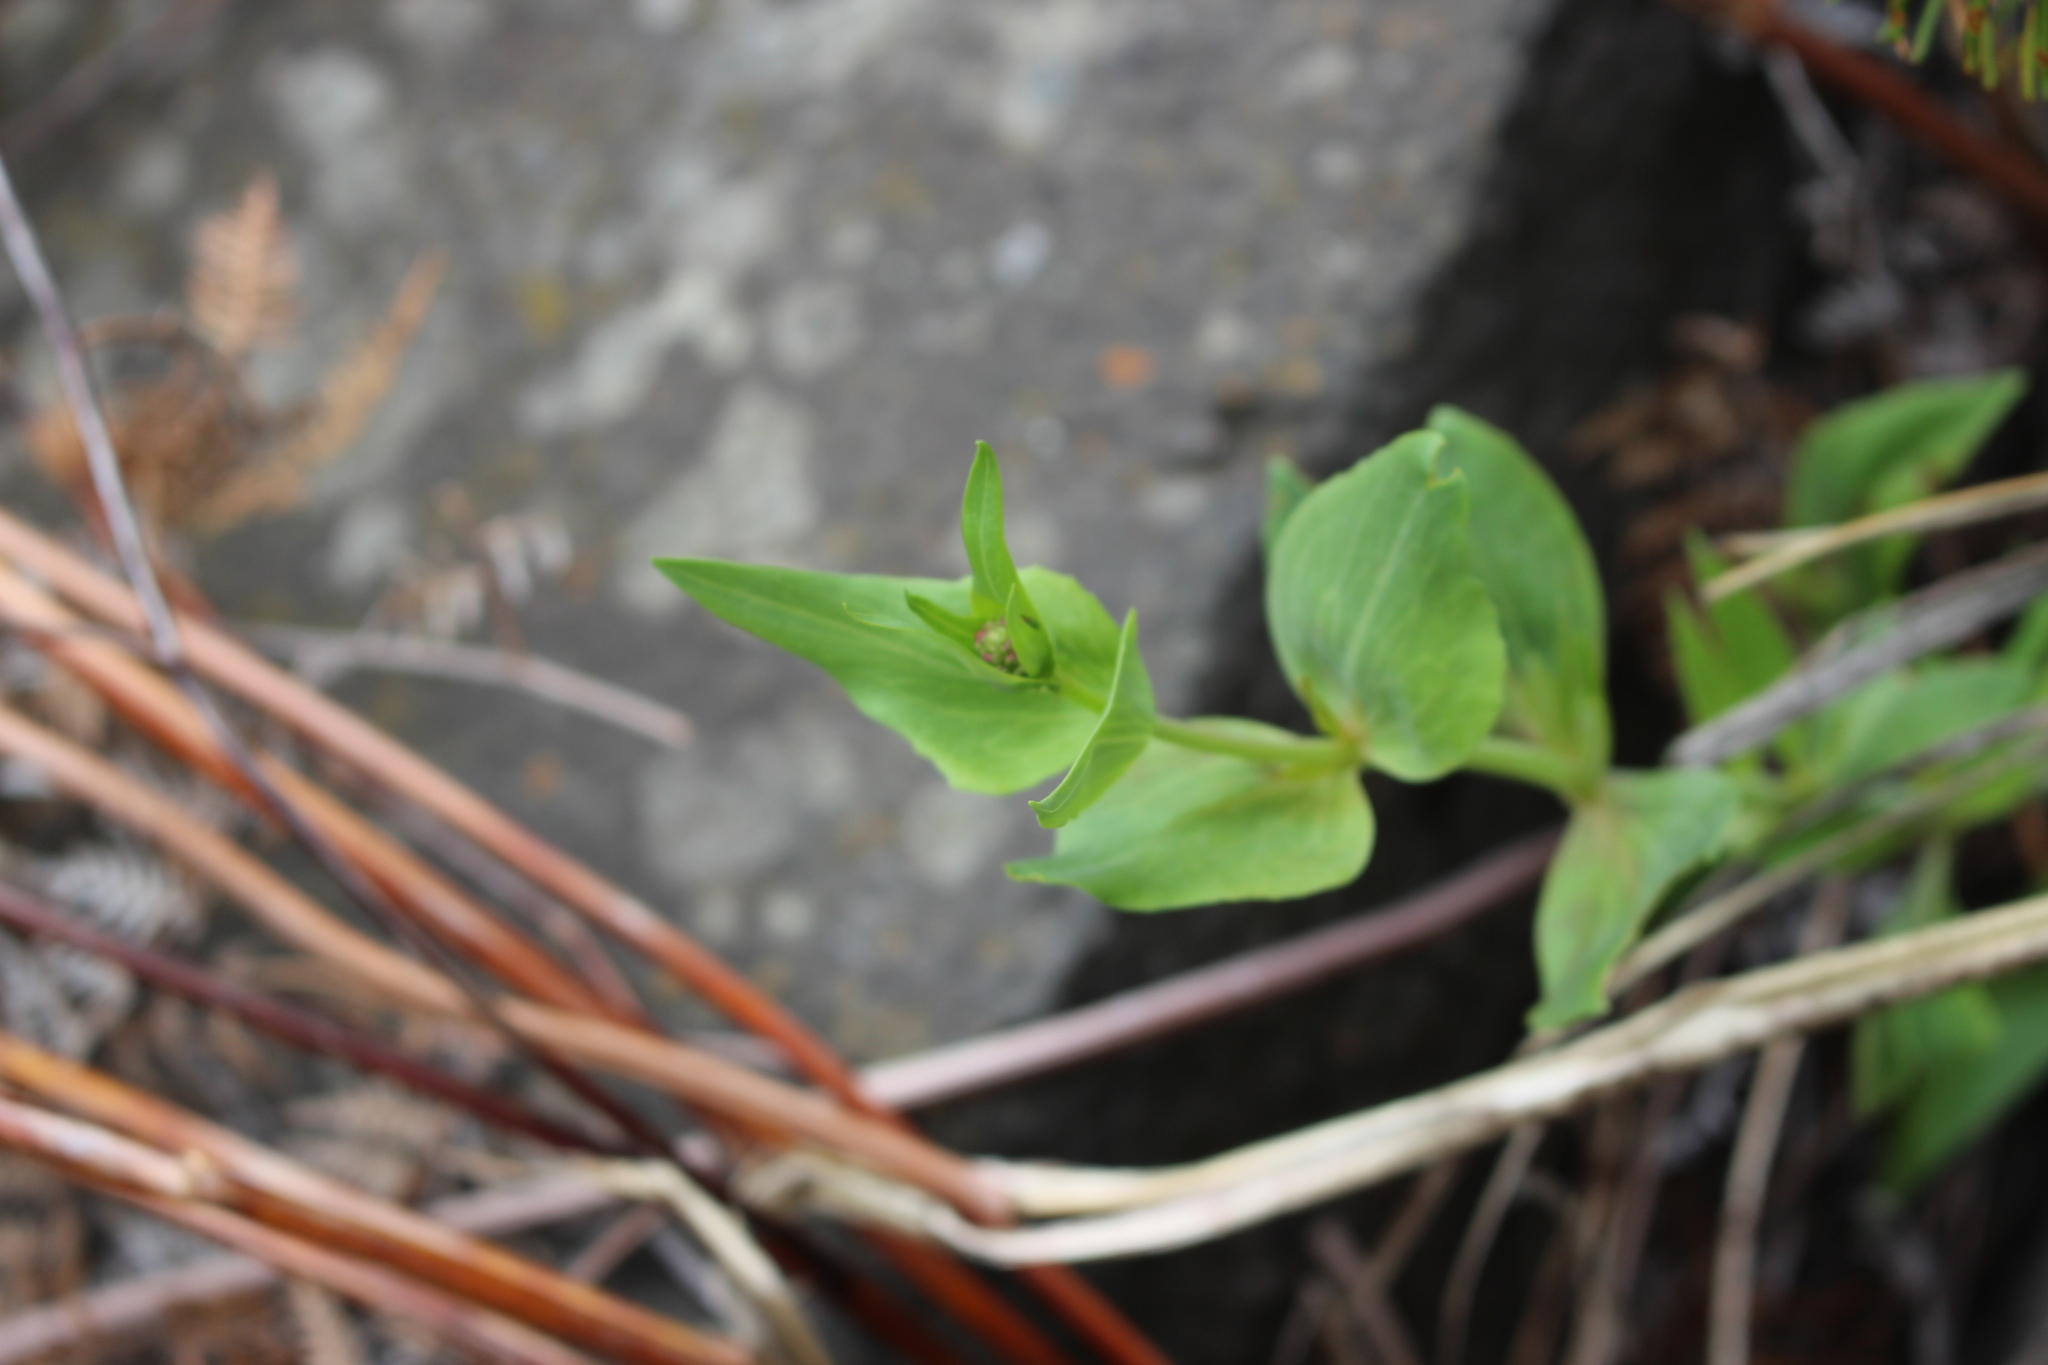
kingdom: Plantae
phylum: Tracheophyta
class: Magnoliopsida
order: Dipsacales
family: Caprifoliaceae
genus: Centranthus
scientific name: Centranthus ruber
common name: Red valerian
